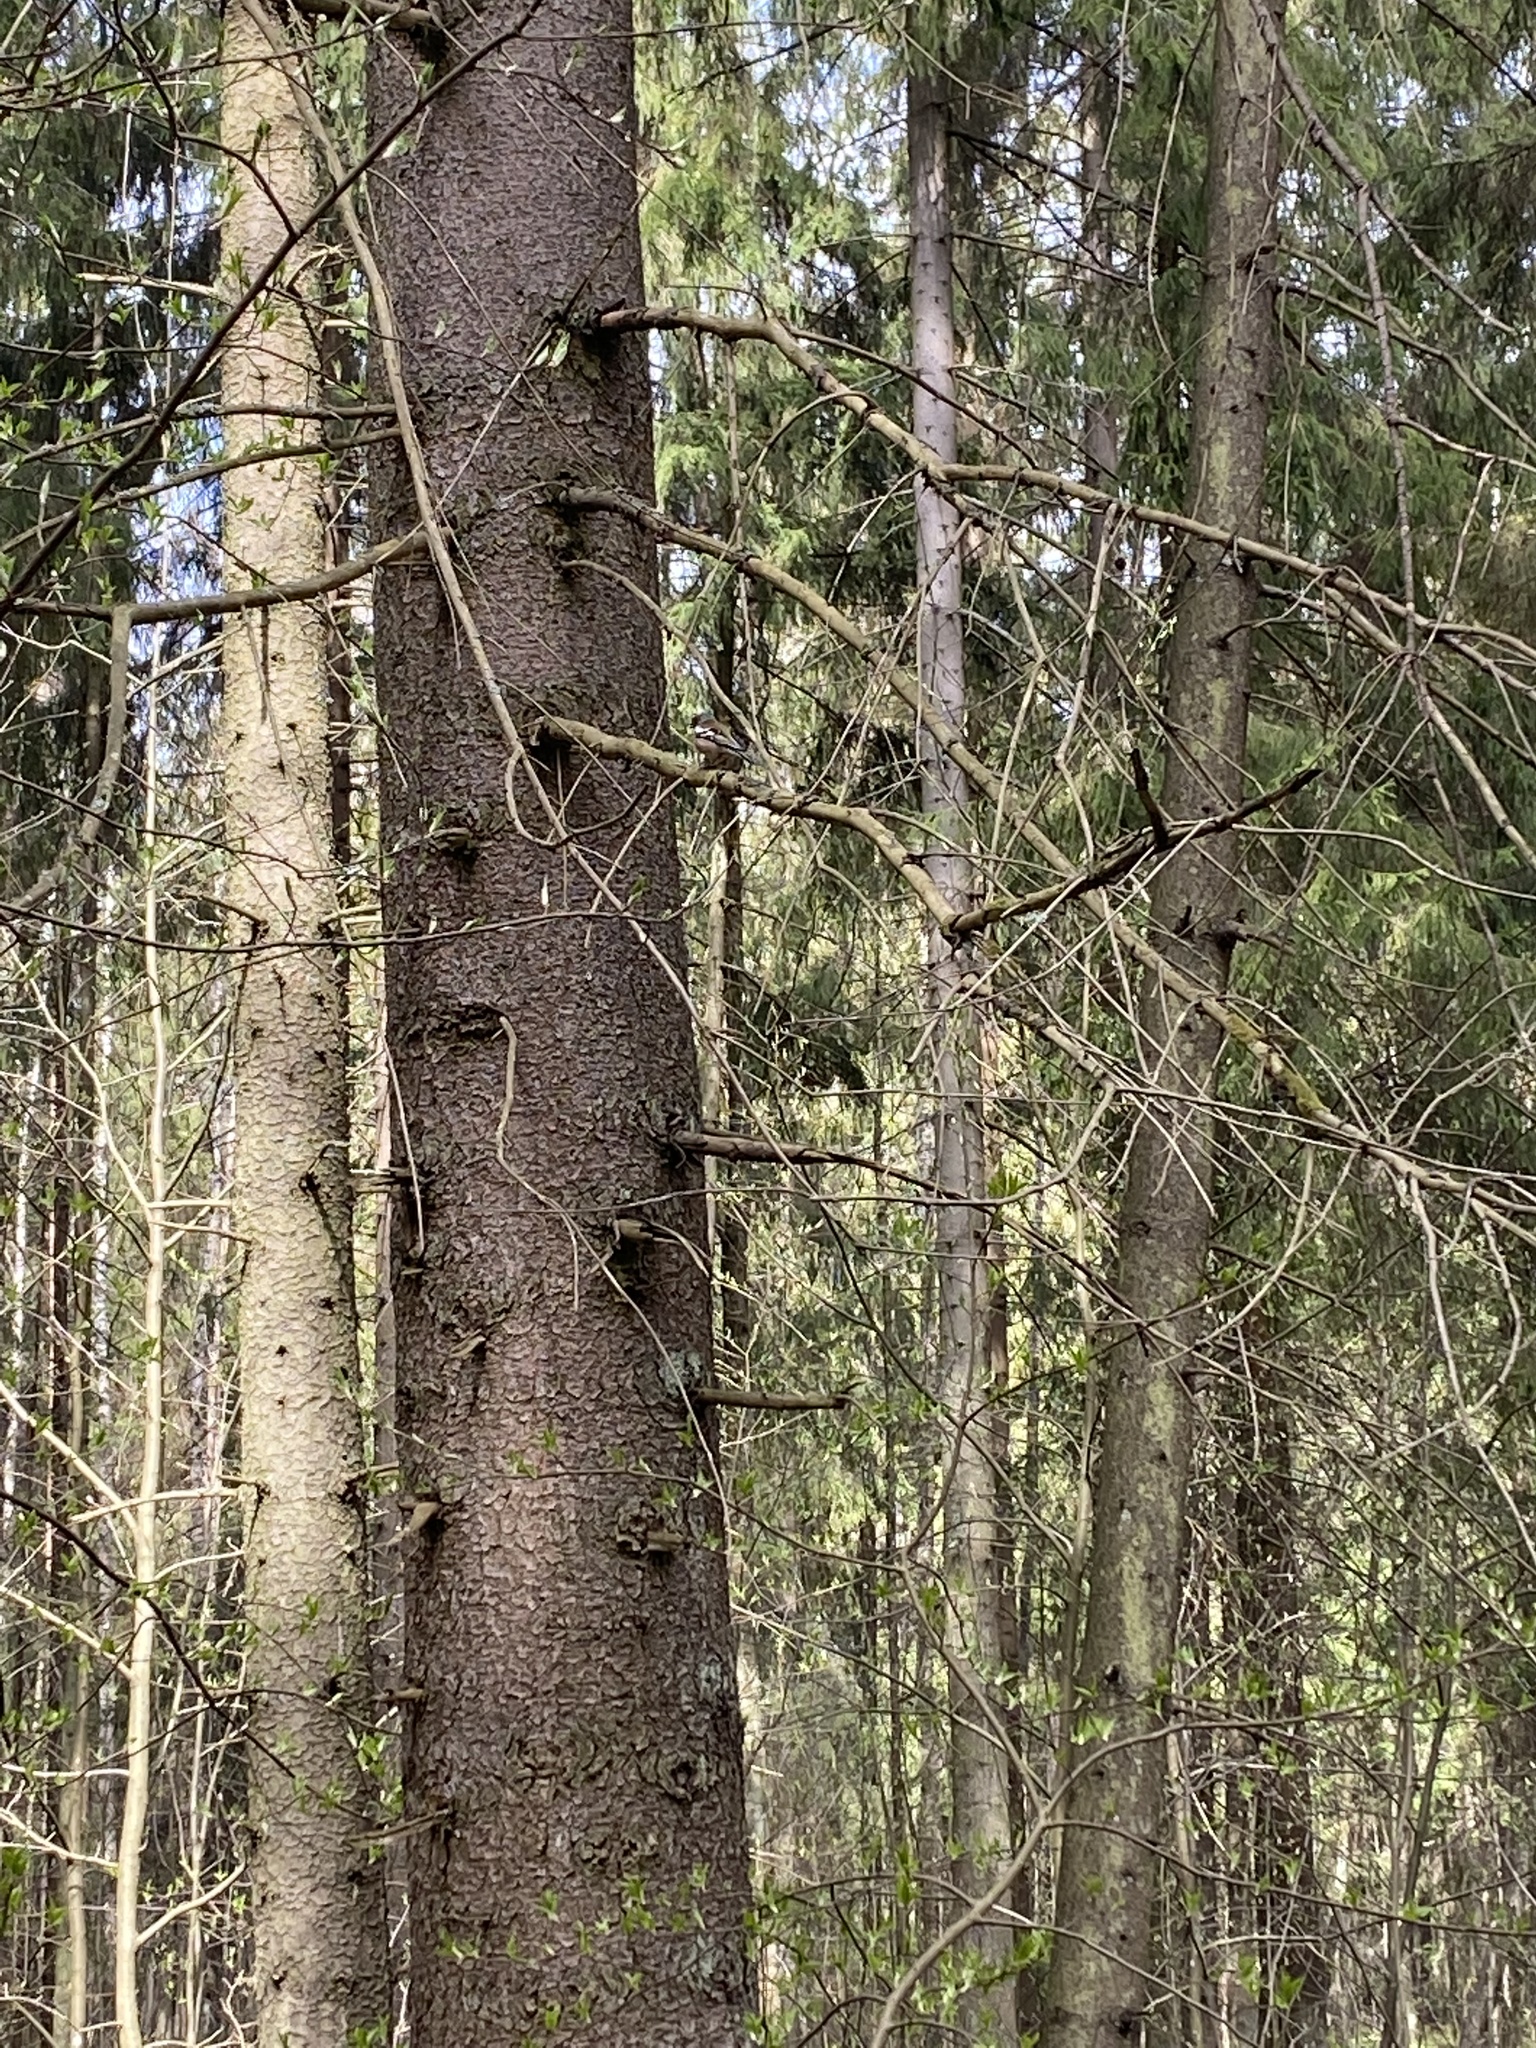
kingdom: Animalia
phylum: Chordata
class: Aves
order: Passeriformes
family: Fringillidae
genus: Fringilla
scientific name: Fringilla coelebs
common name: Common chaffinch
